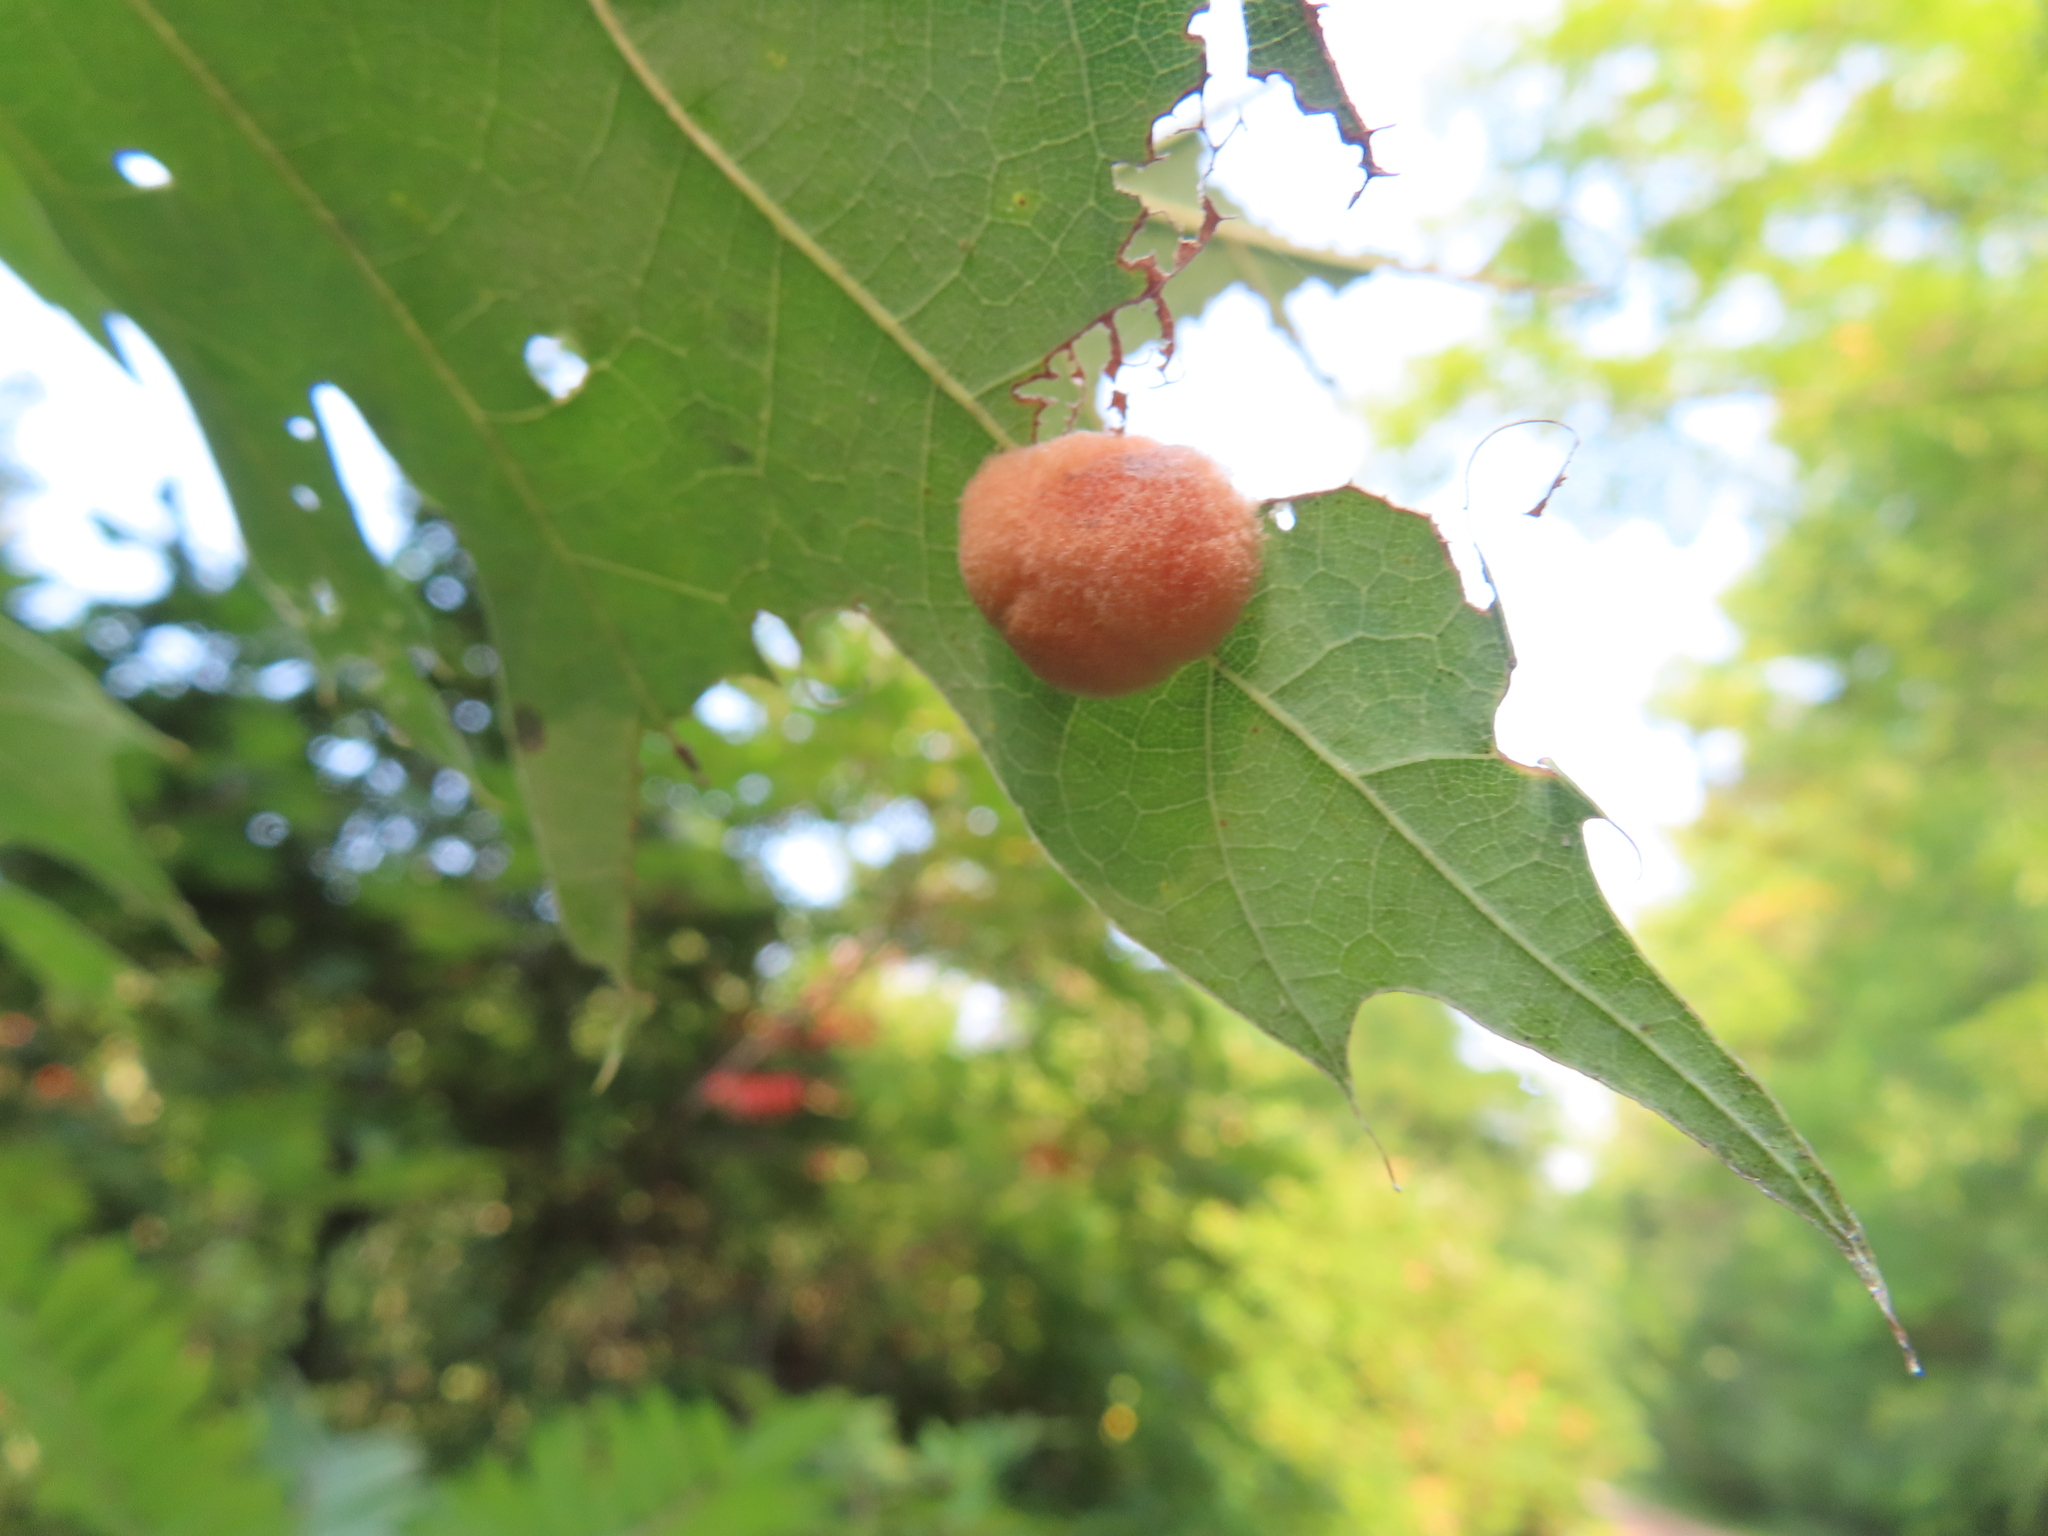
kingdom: Animalia
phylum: Arthropoda
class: Insecta
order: Hymenoptera
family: Cynipidae
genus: Callirhytis
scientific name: Callirhytis
